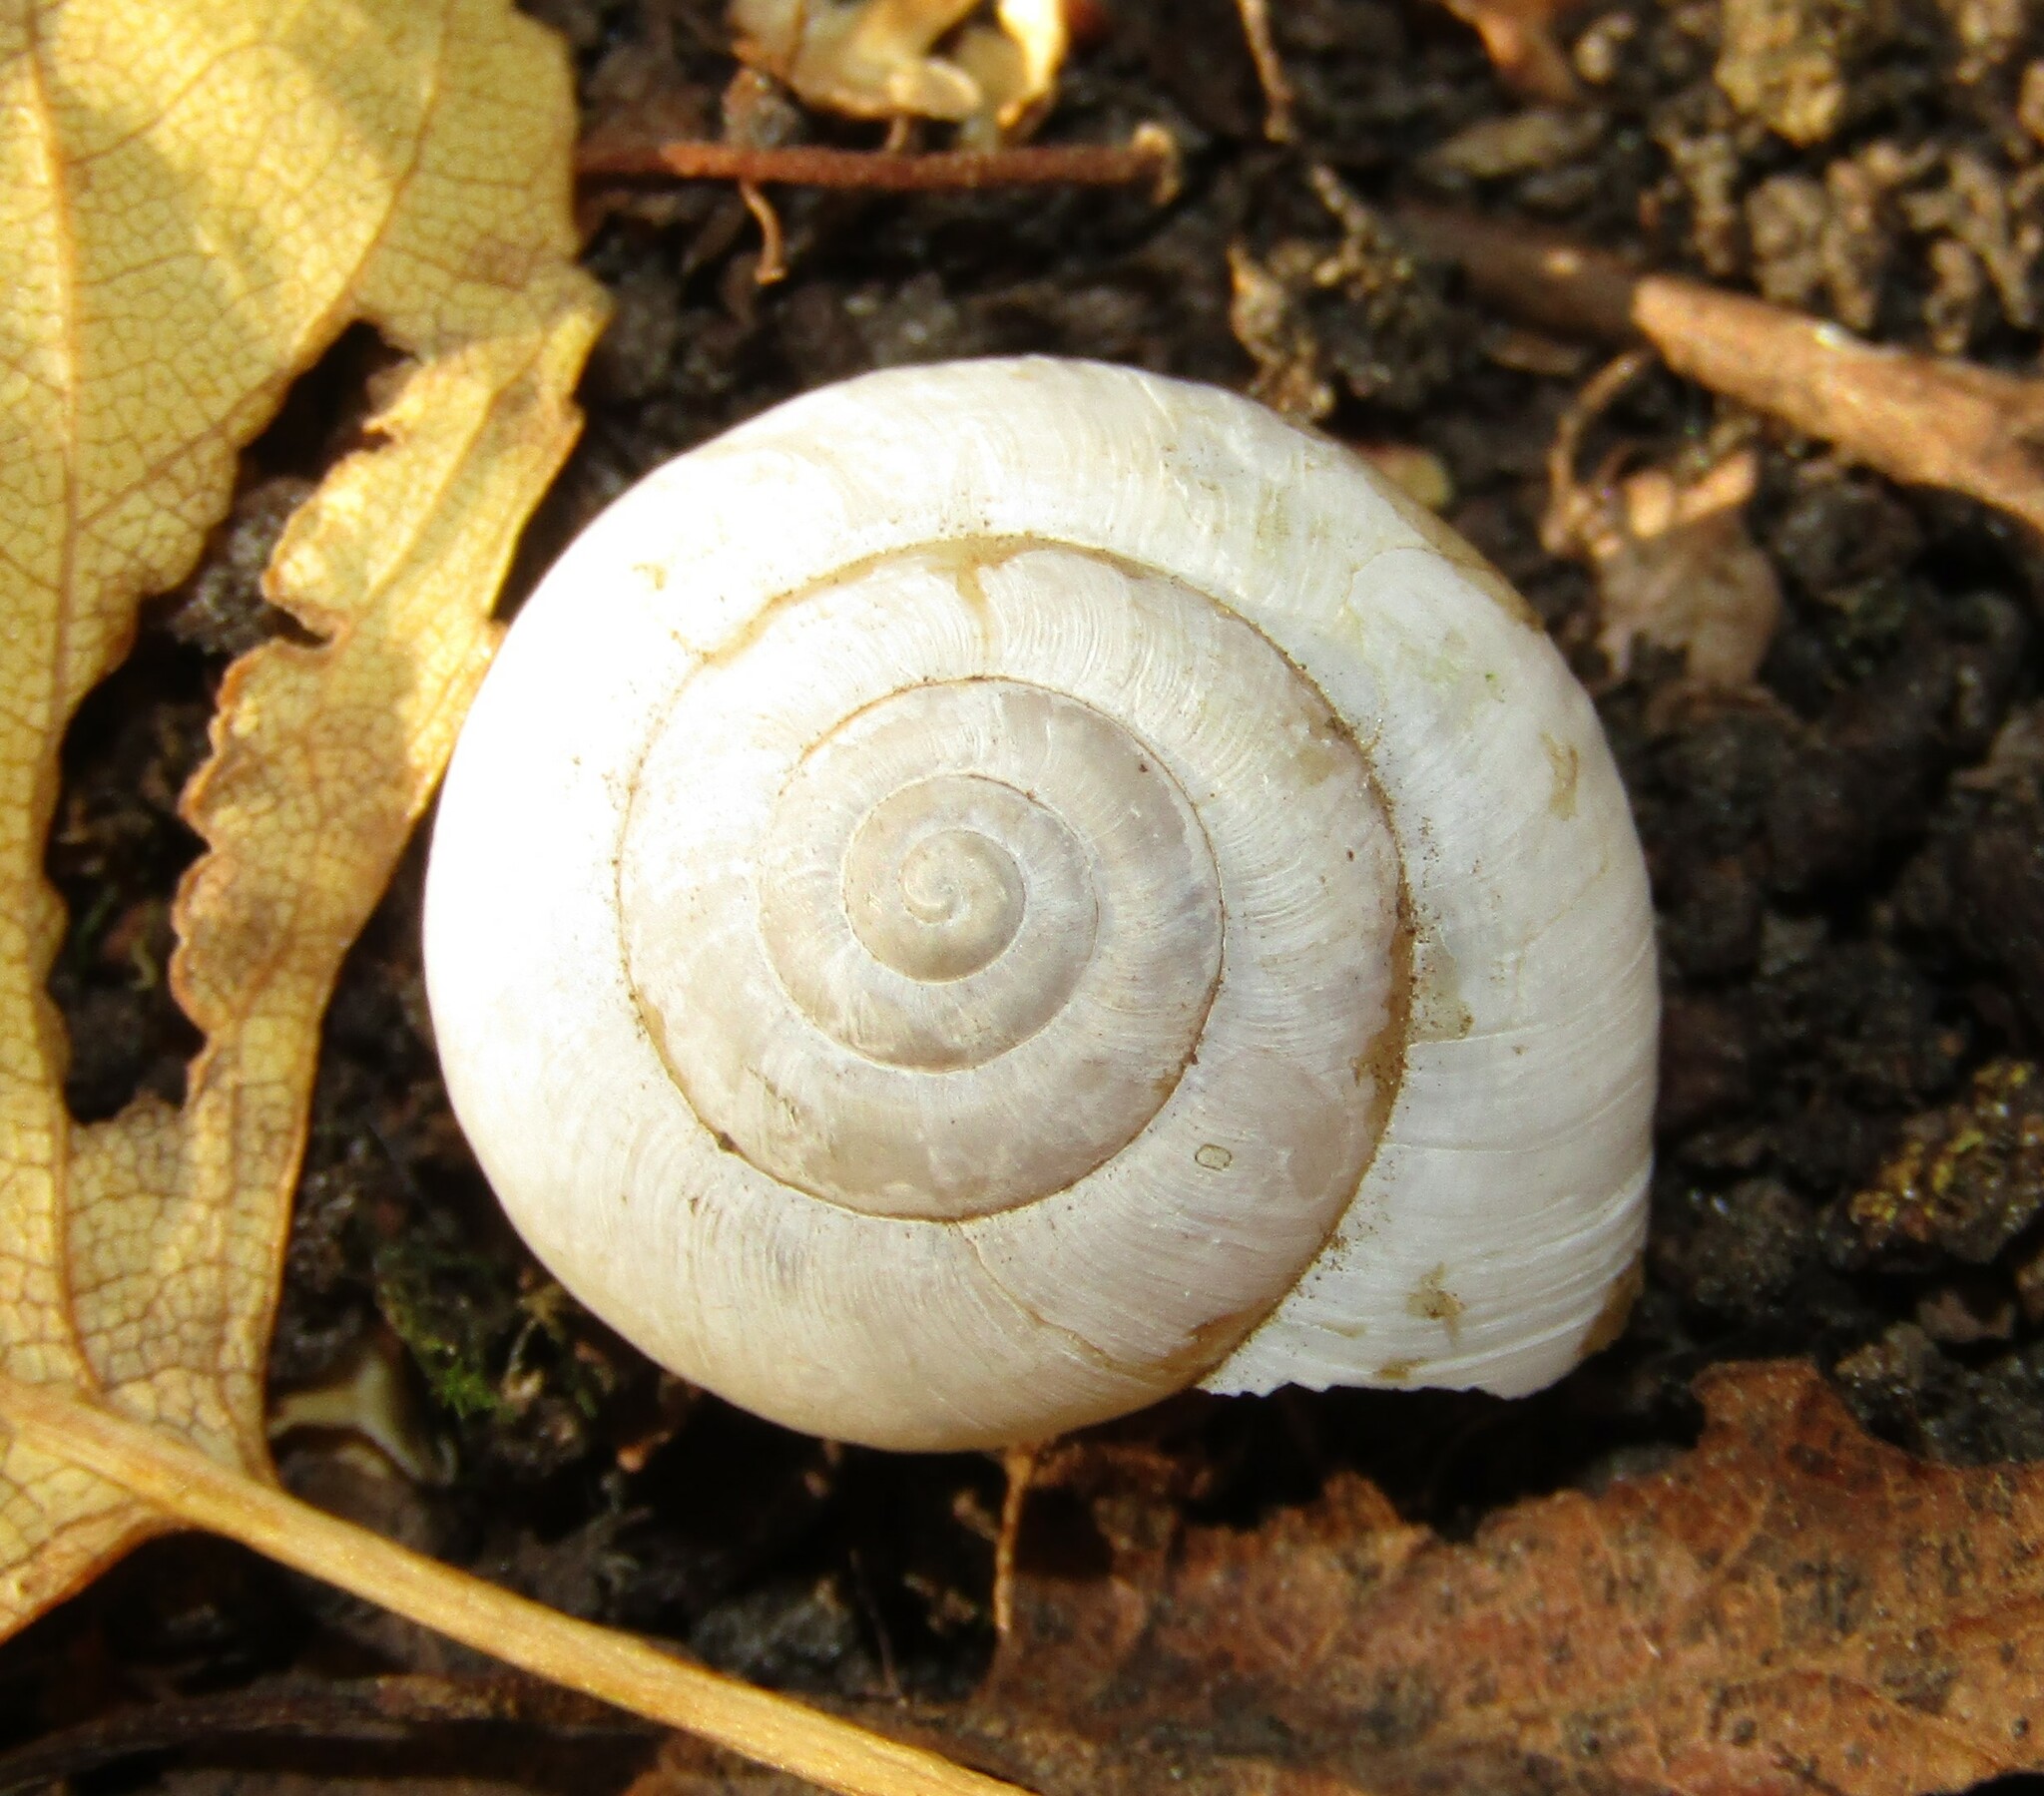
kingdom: Animalia
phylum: Mollusca
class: Gastropoda
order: Stylommatophora
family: Camaenidae
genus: Fruticicola
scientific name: Fruticicola fruticum
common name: Bush snail
